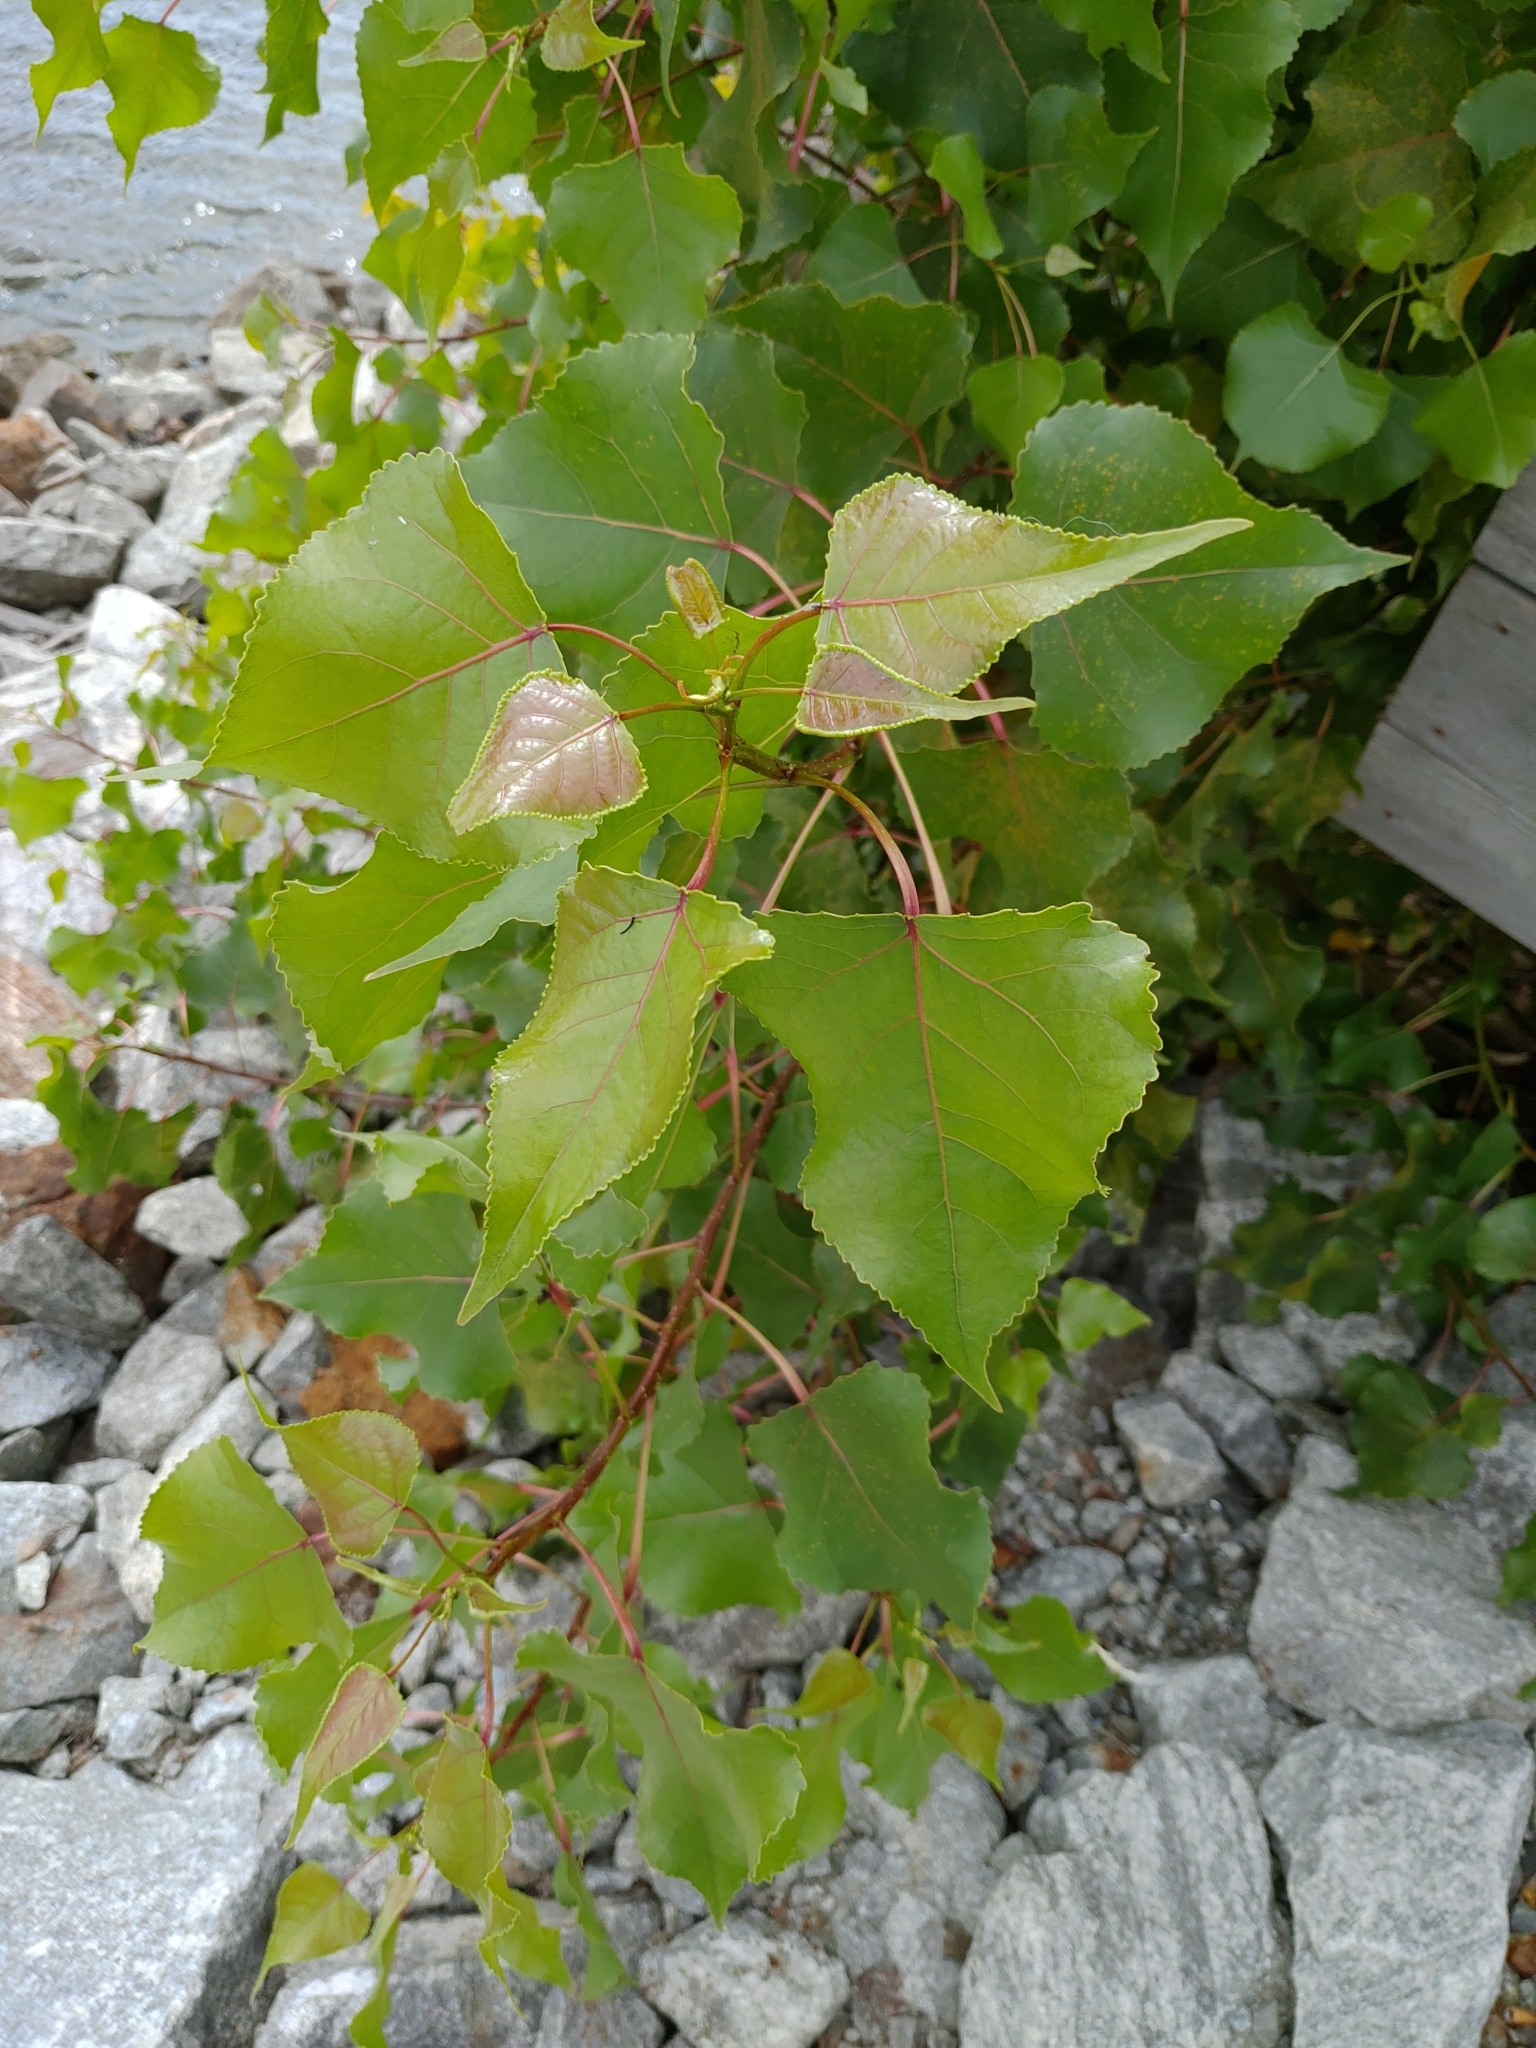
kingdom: Plantae
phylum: Tracheophyta
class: Magnoliopsida
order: Malpighiales
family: Salicaceae
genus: Populus
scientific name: Populus deltoides
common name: Eastern cottonwood
